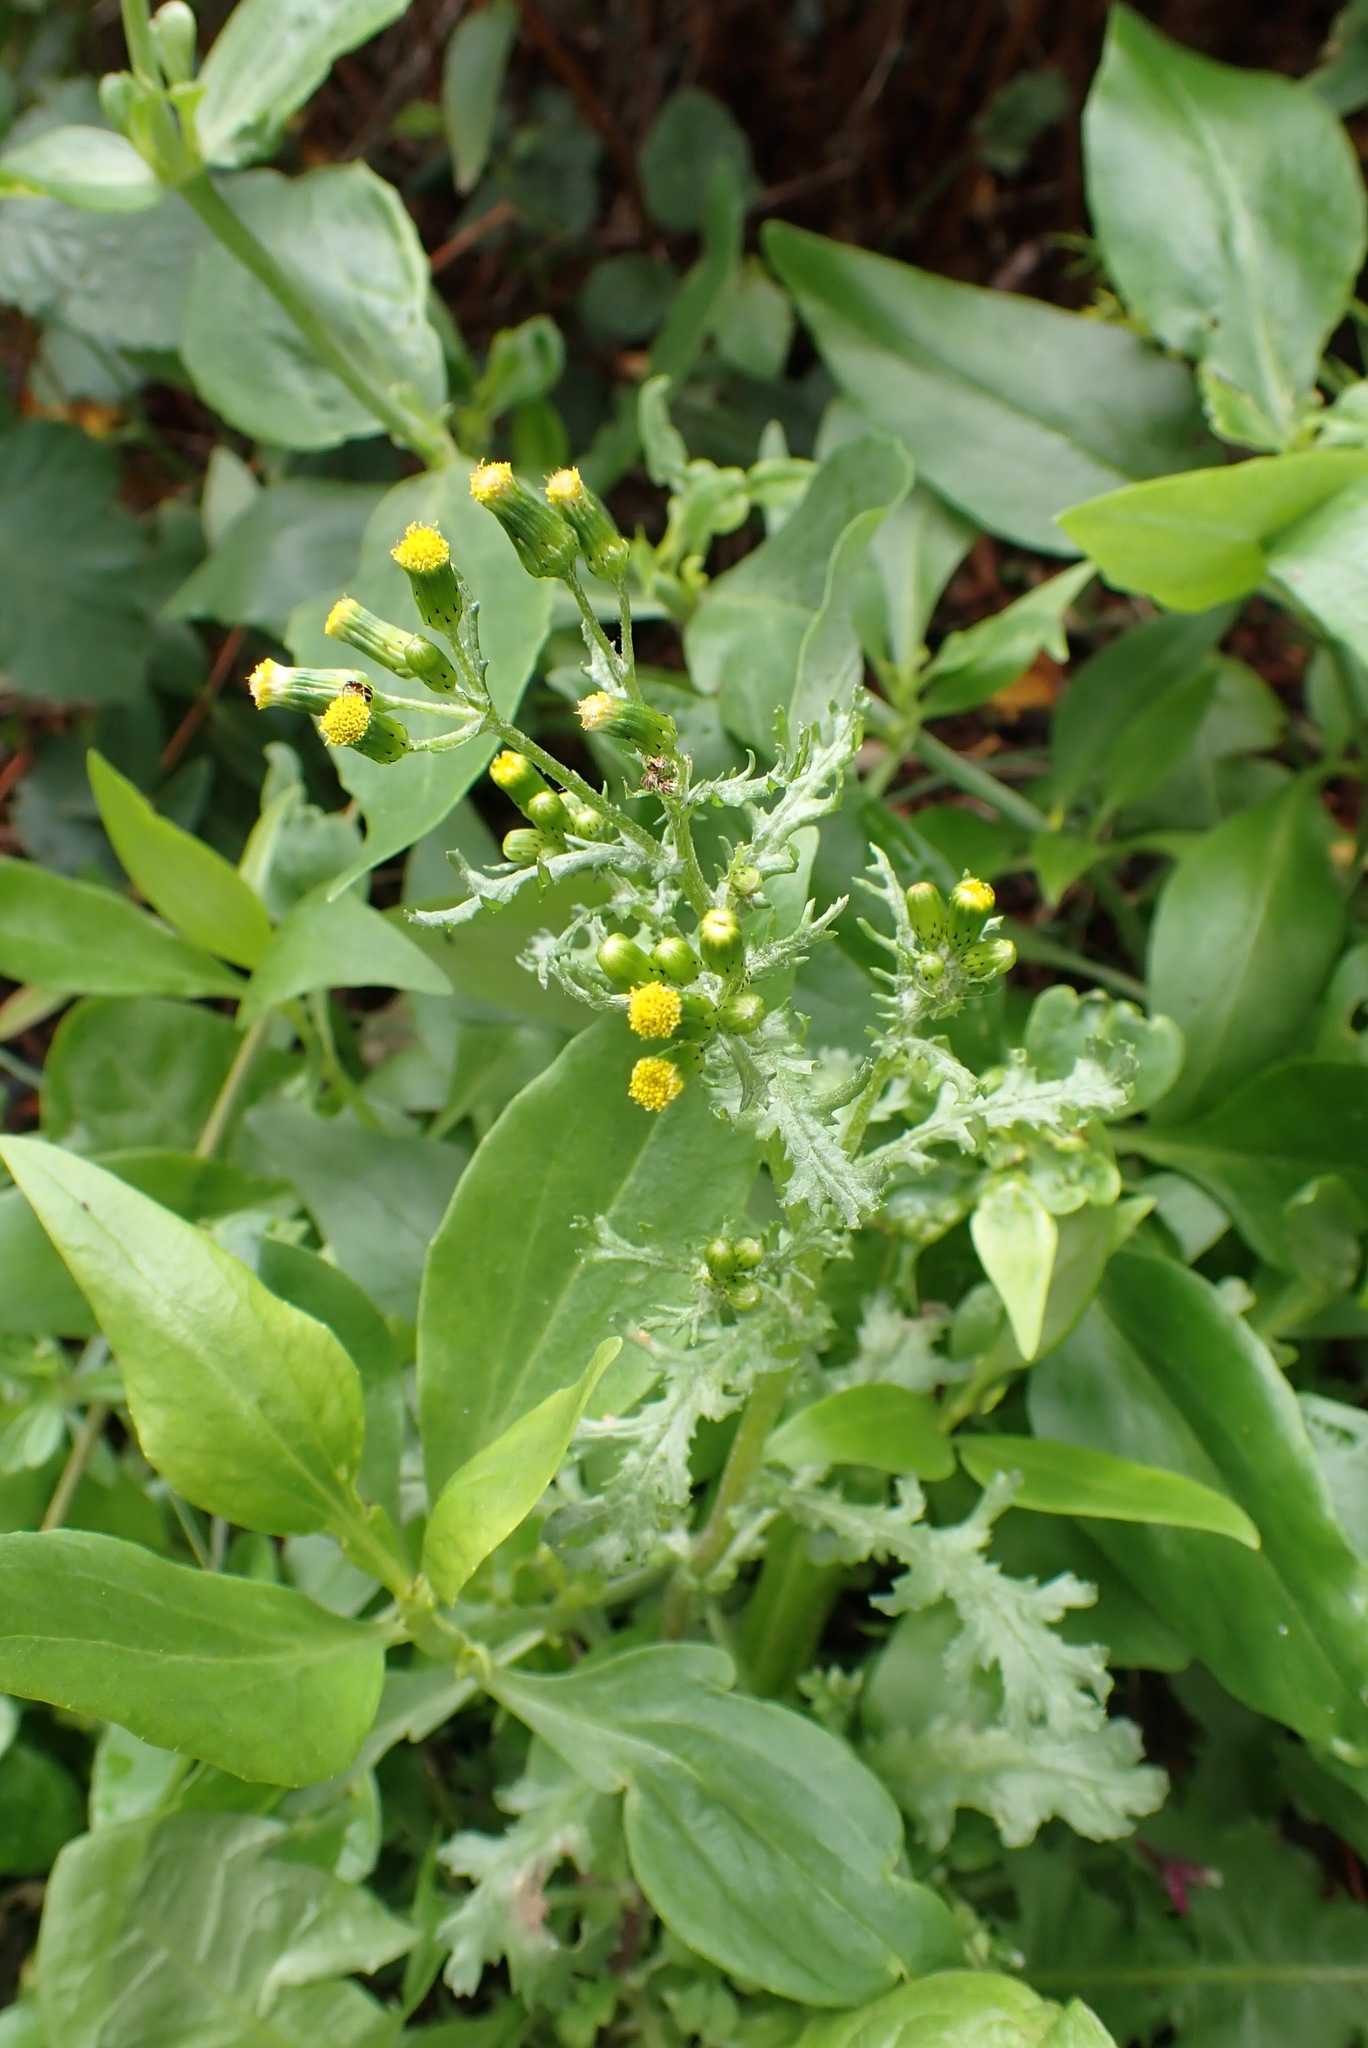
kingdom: Plantae
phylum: Tracheophyta
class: Magnoliopsida
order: Asterales
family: Asteraceae
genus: Senecio
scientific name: Senecio vulgaris
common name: Old-man-in-the-spring
